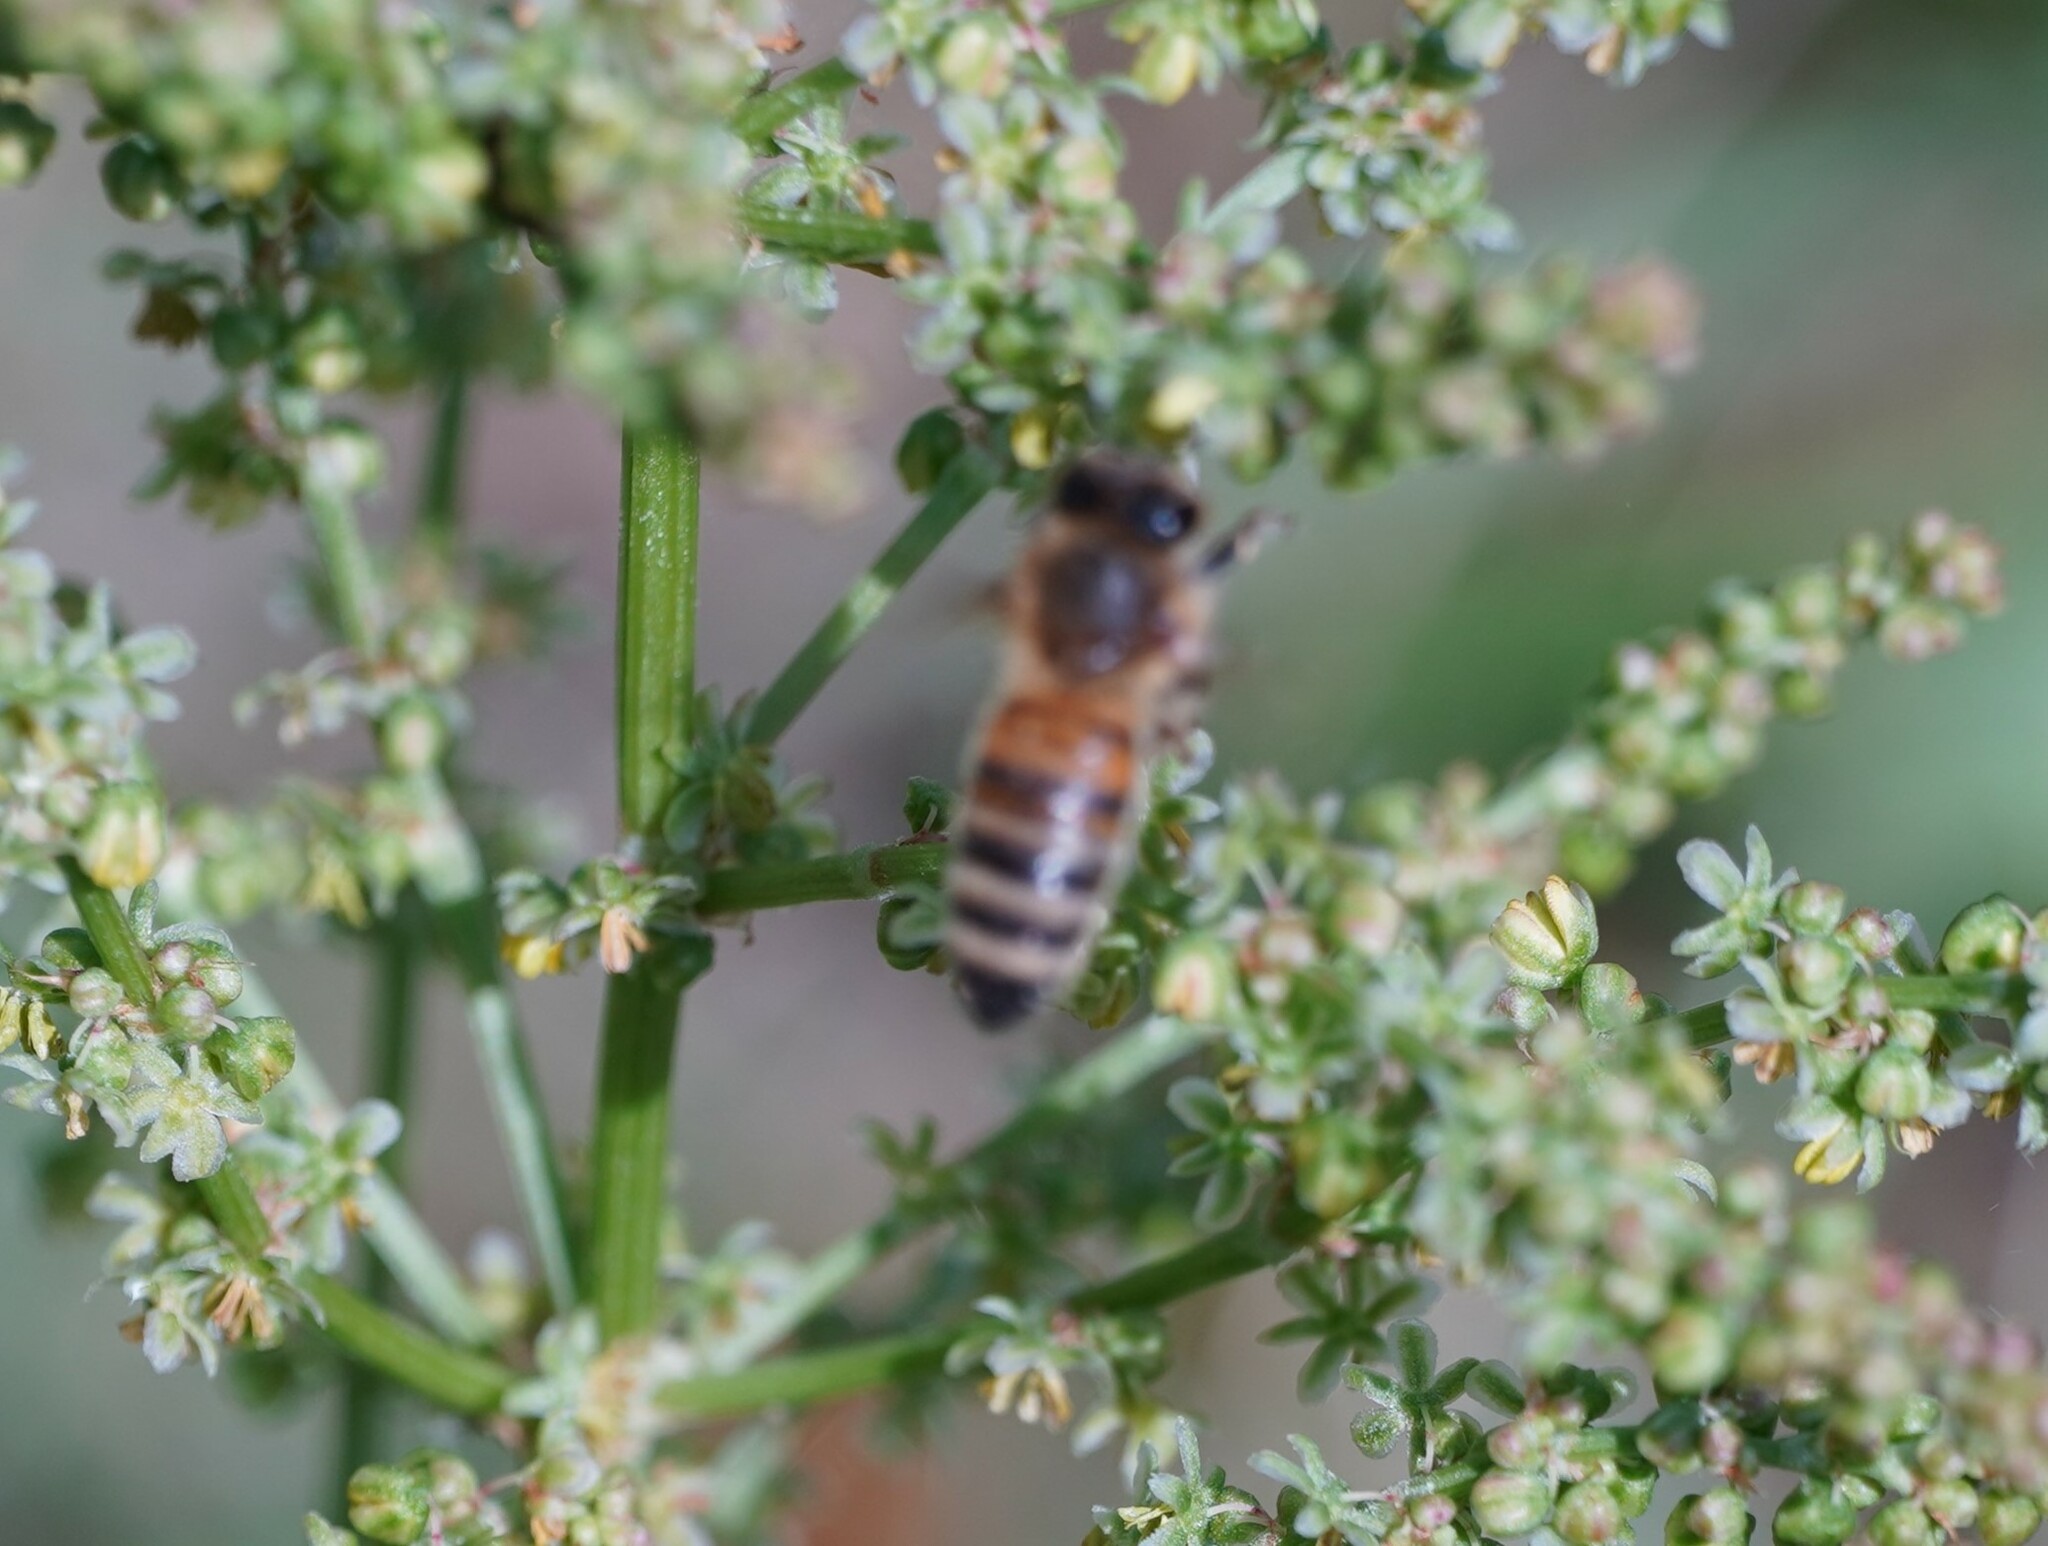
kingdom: Animalia
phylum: Arthropoda
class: Insecta
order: Hymenoptera
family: Apidae
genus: Apis
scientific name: Apis mellifera
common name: Honey bee
